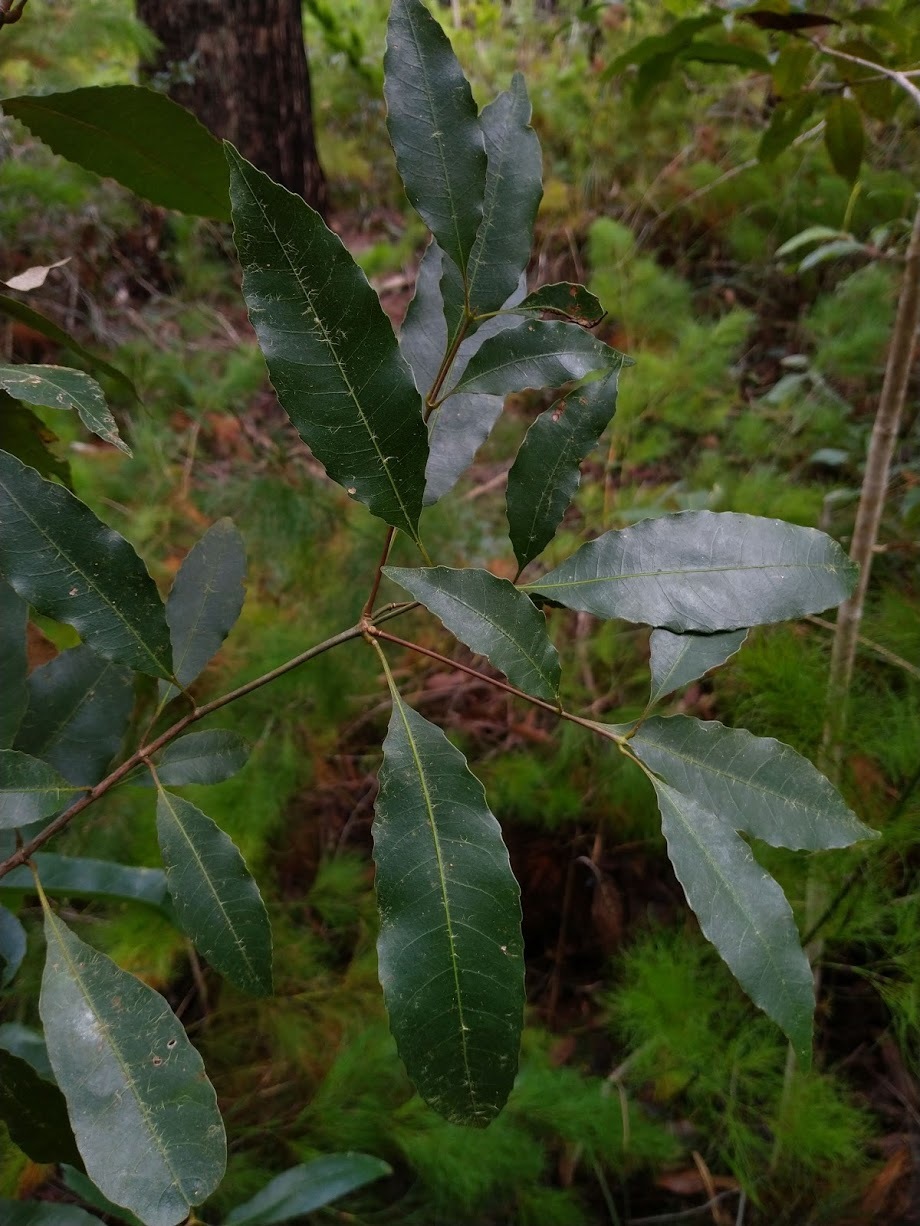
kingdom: Plantae
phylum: Tracheophyta
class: Magnoliopsida
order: Oxalidales
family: Cunoniaceae
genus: Schizomeria
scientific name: Schizomeria ovata
